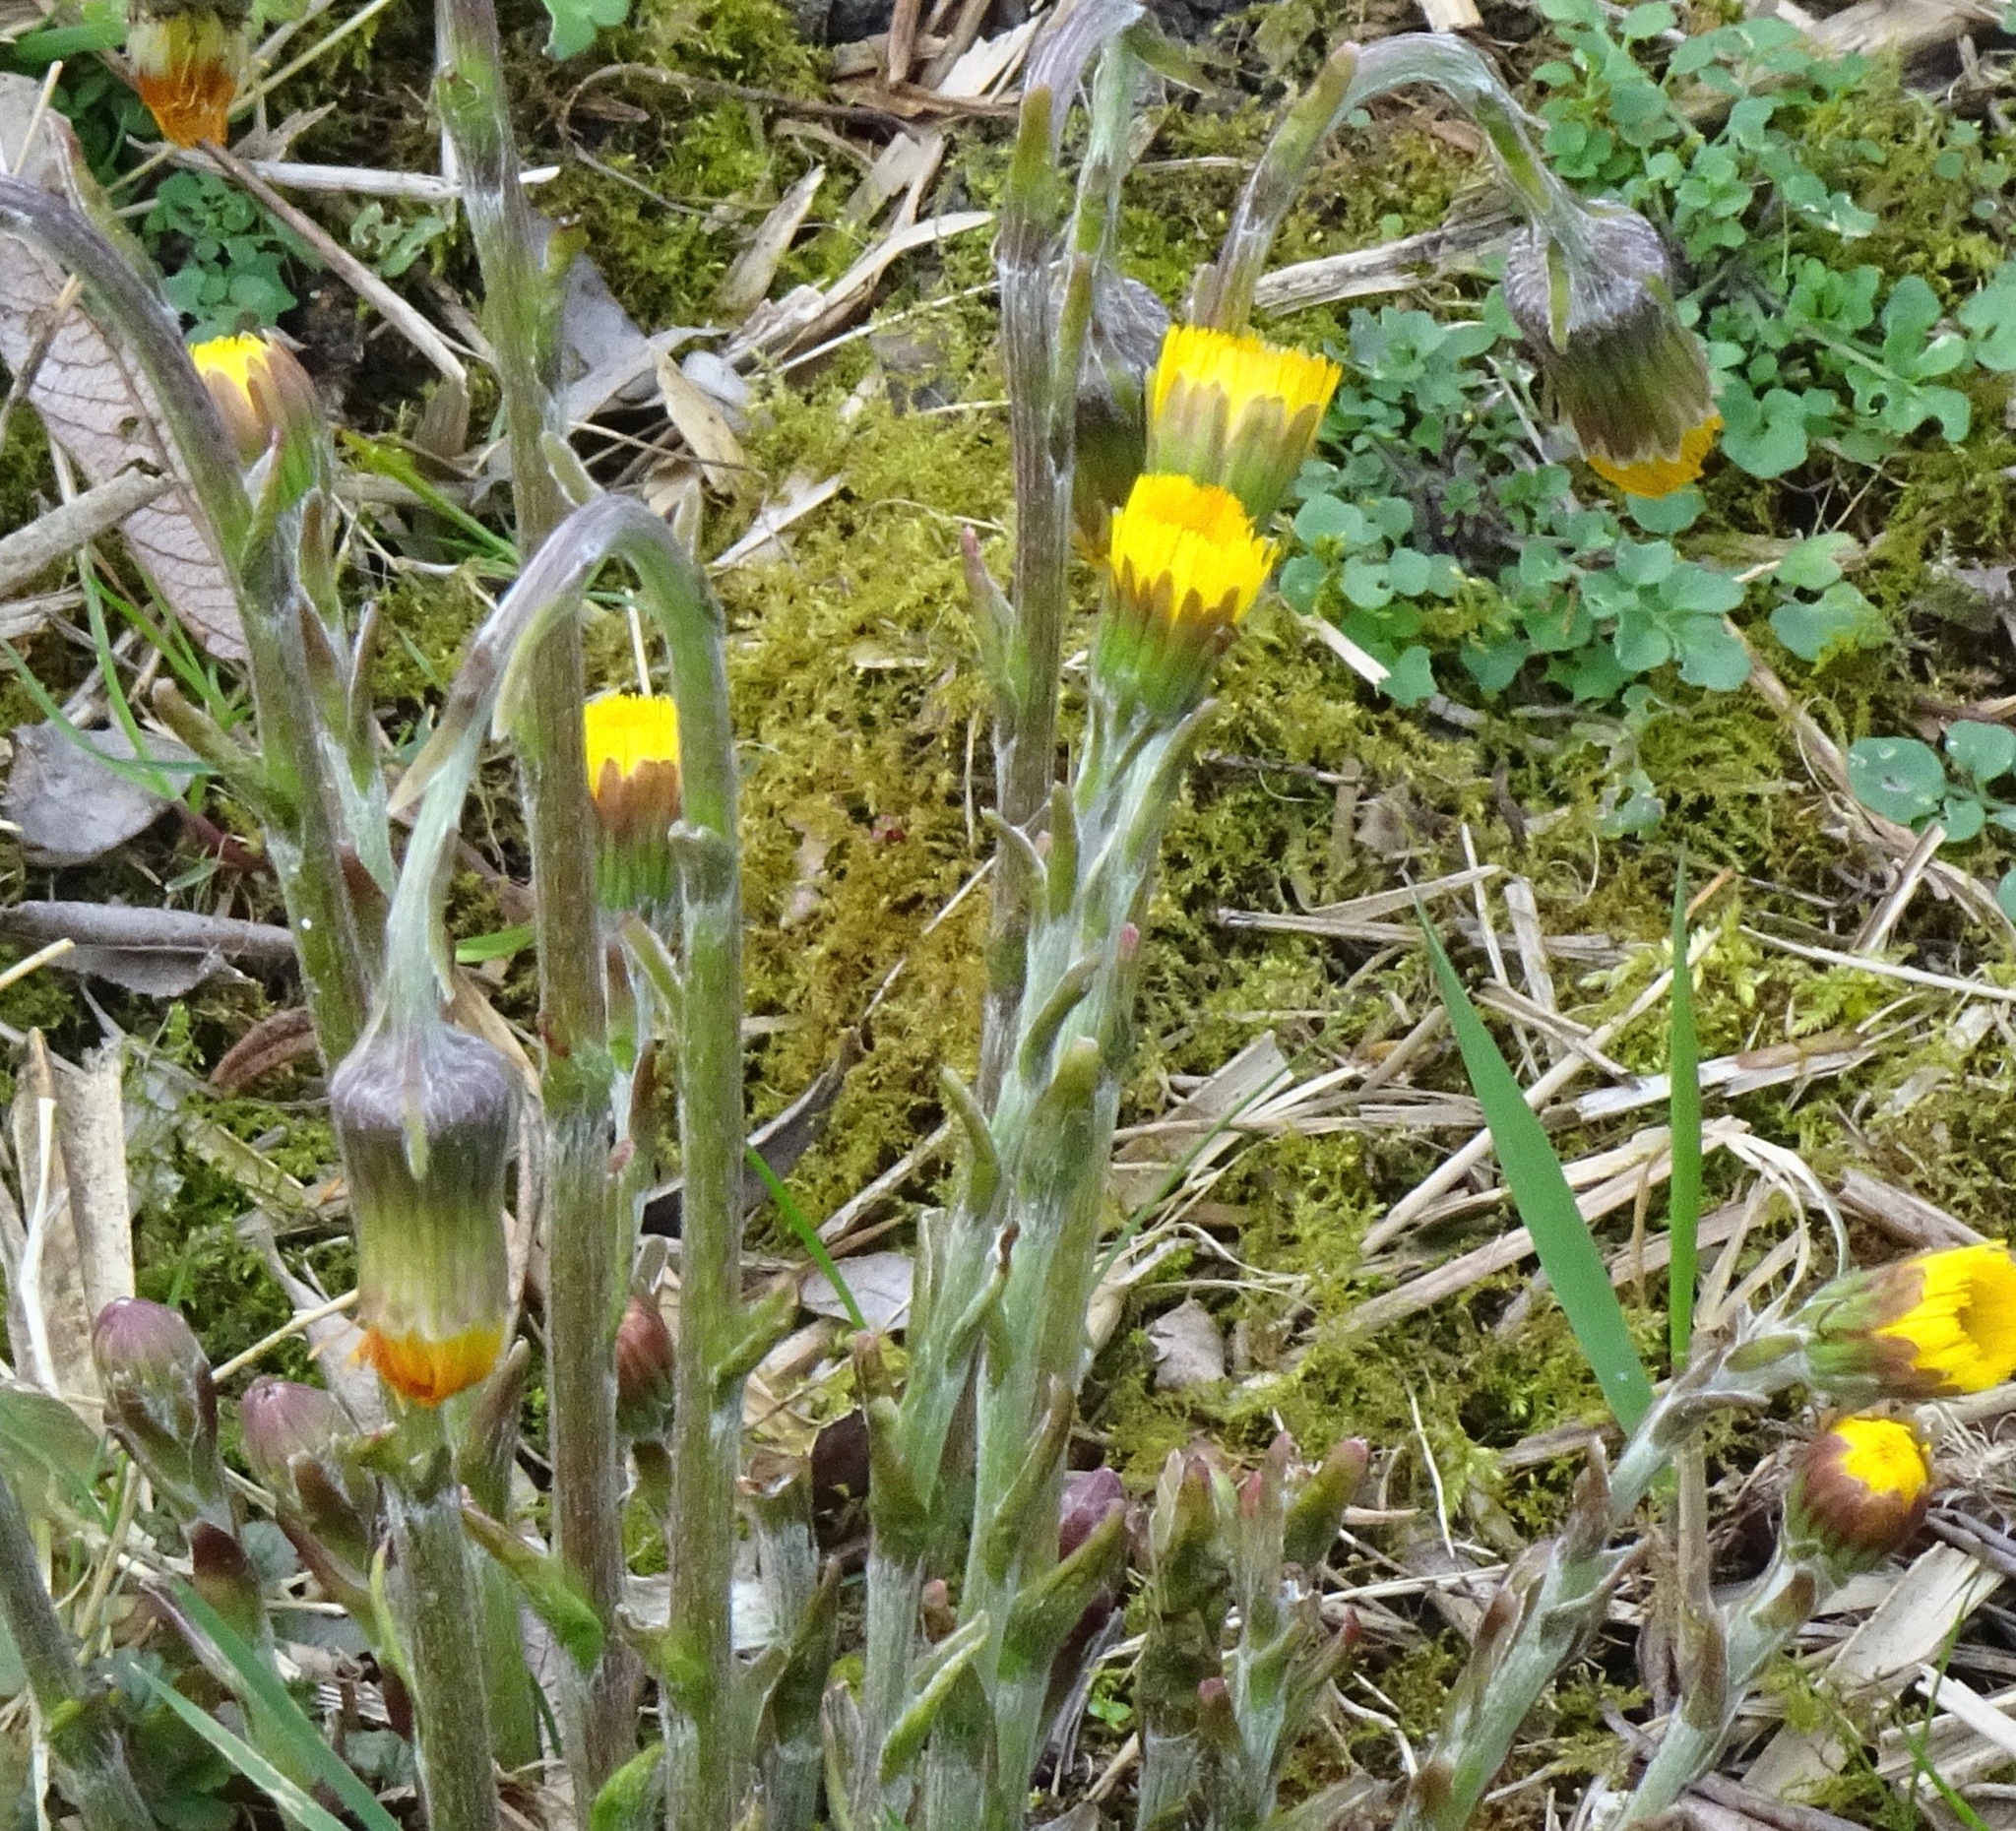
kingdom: Plantae
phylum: Tracheophyta
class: Magnoliopsida
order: Asterales
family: Asteraceae
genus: Tussilago
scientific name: Tussilago farfara
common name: Coltsfoot
